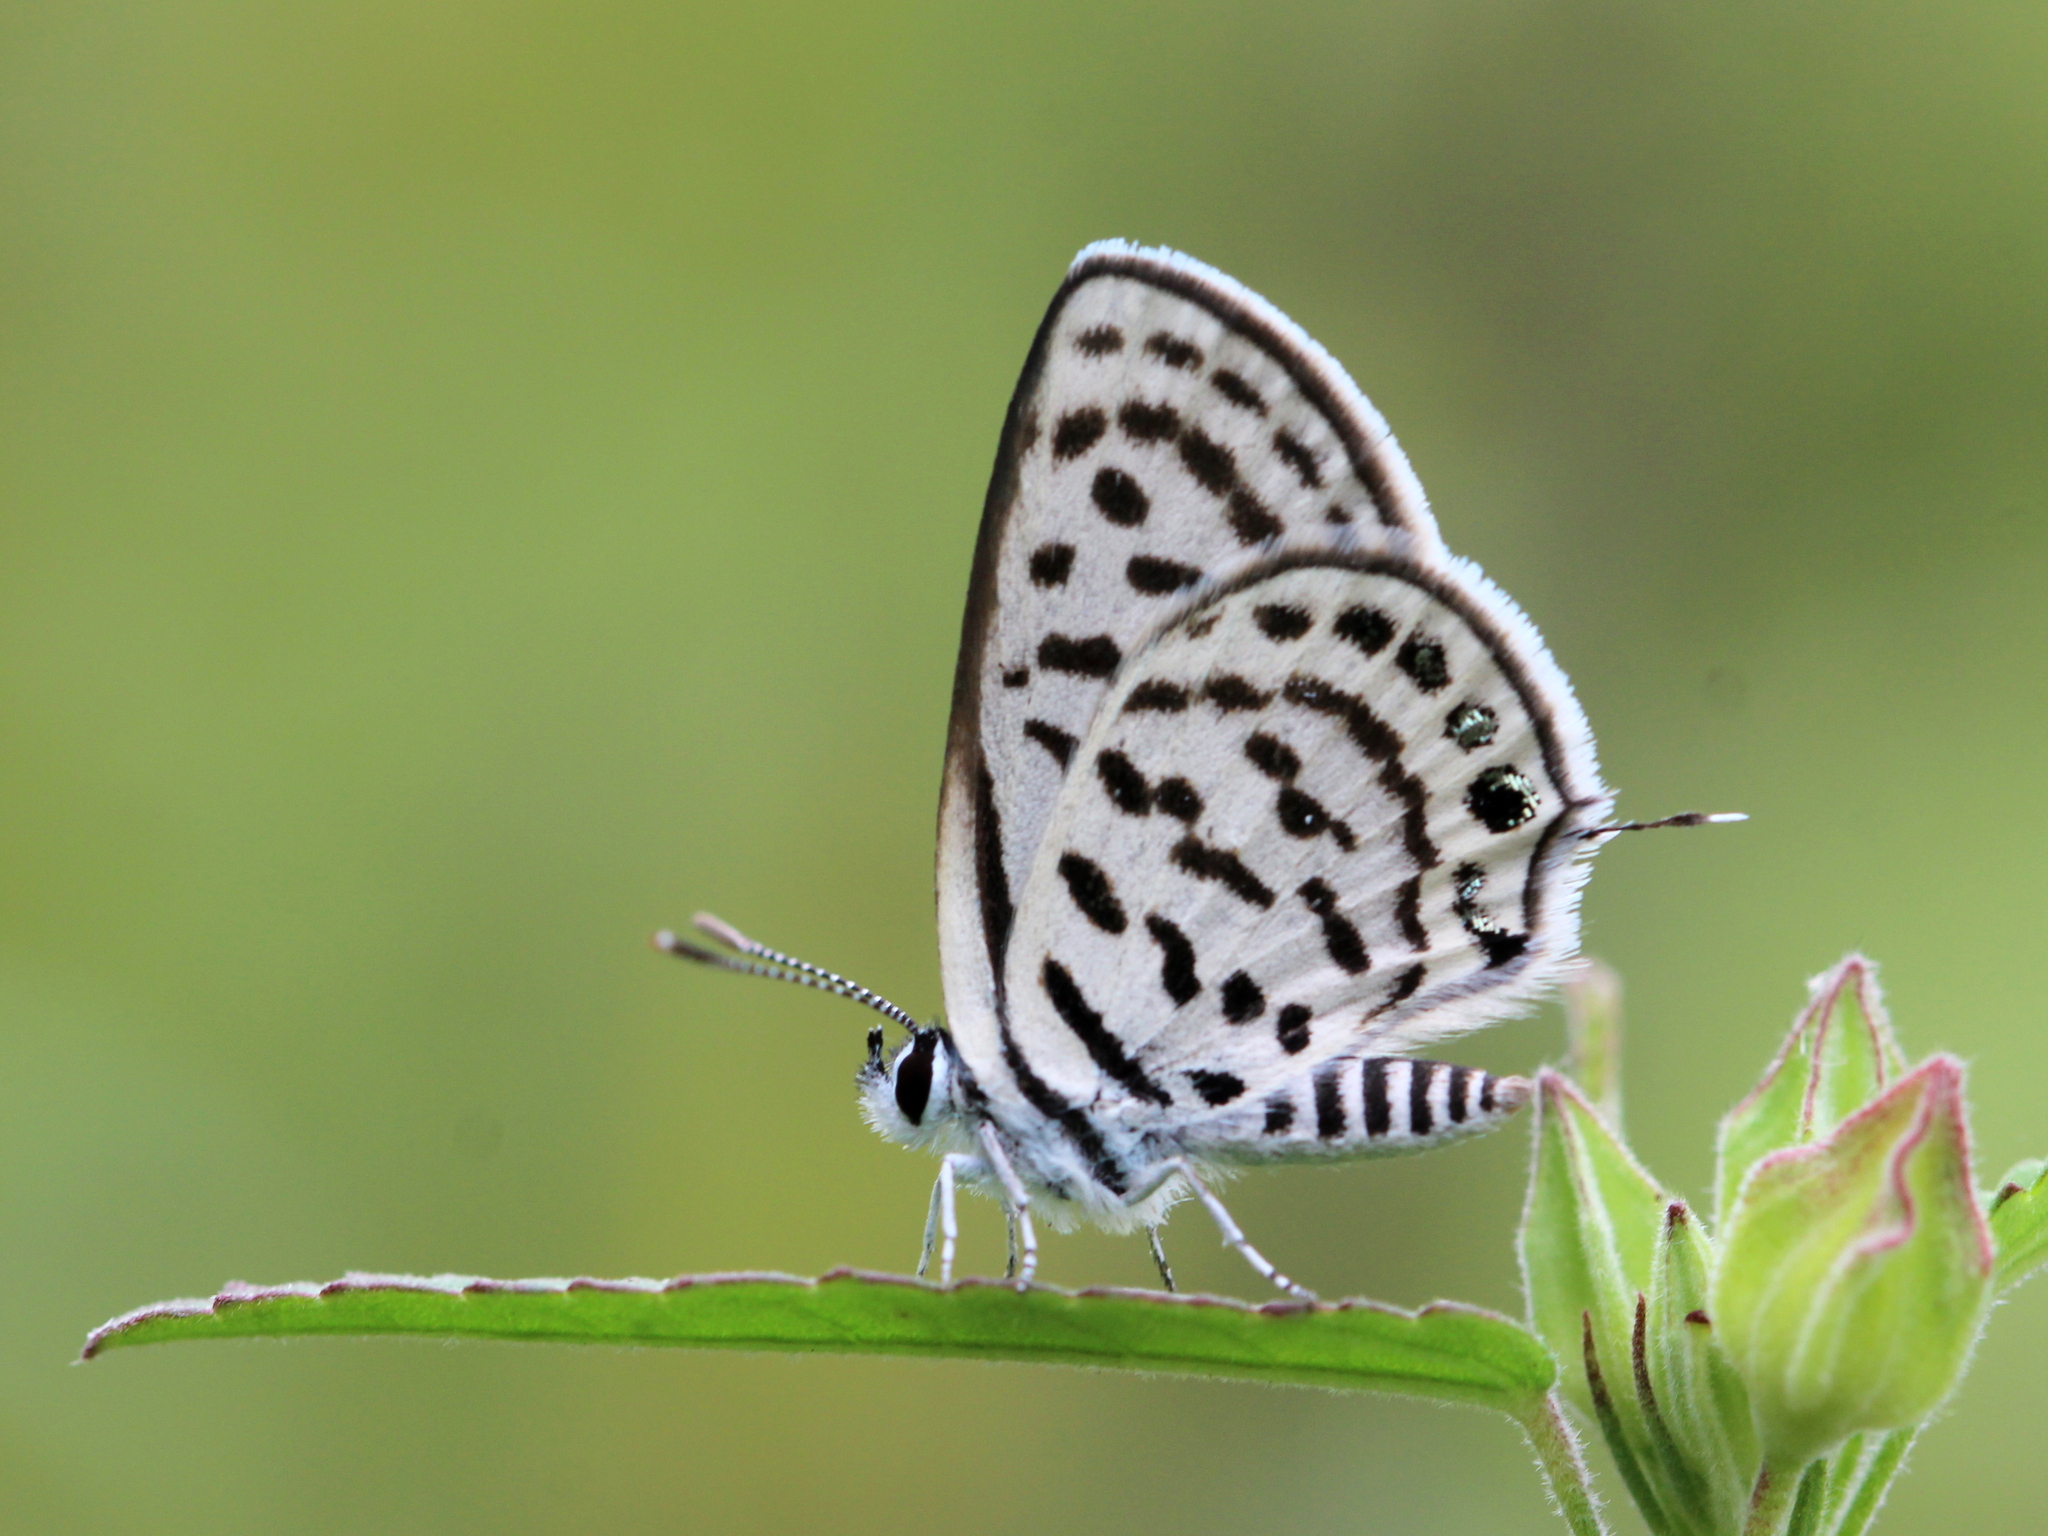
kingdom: Animalia
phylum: Arthropoda
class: Insecta
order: Lepidoptera
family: Lycaenidae
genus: Tarucus
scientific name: Tarucus balkanica
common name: Little tiger blue
